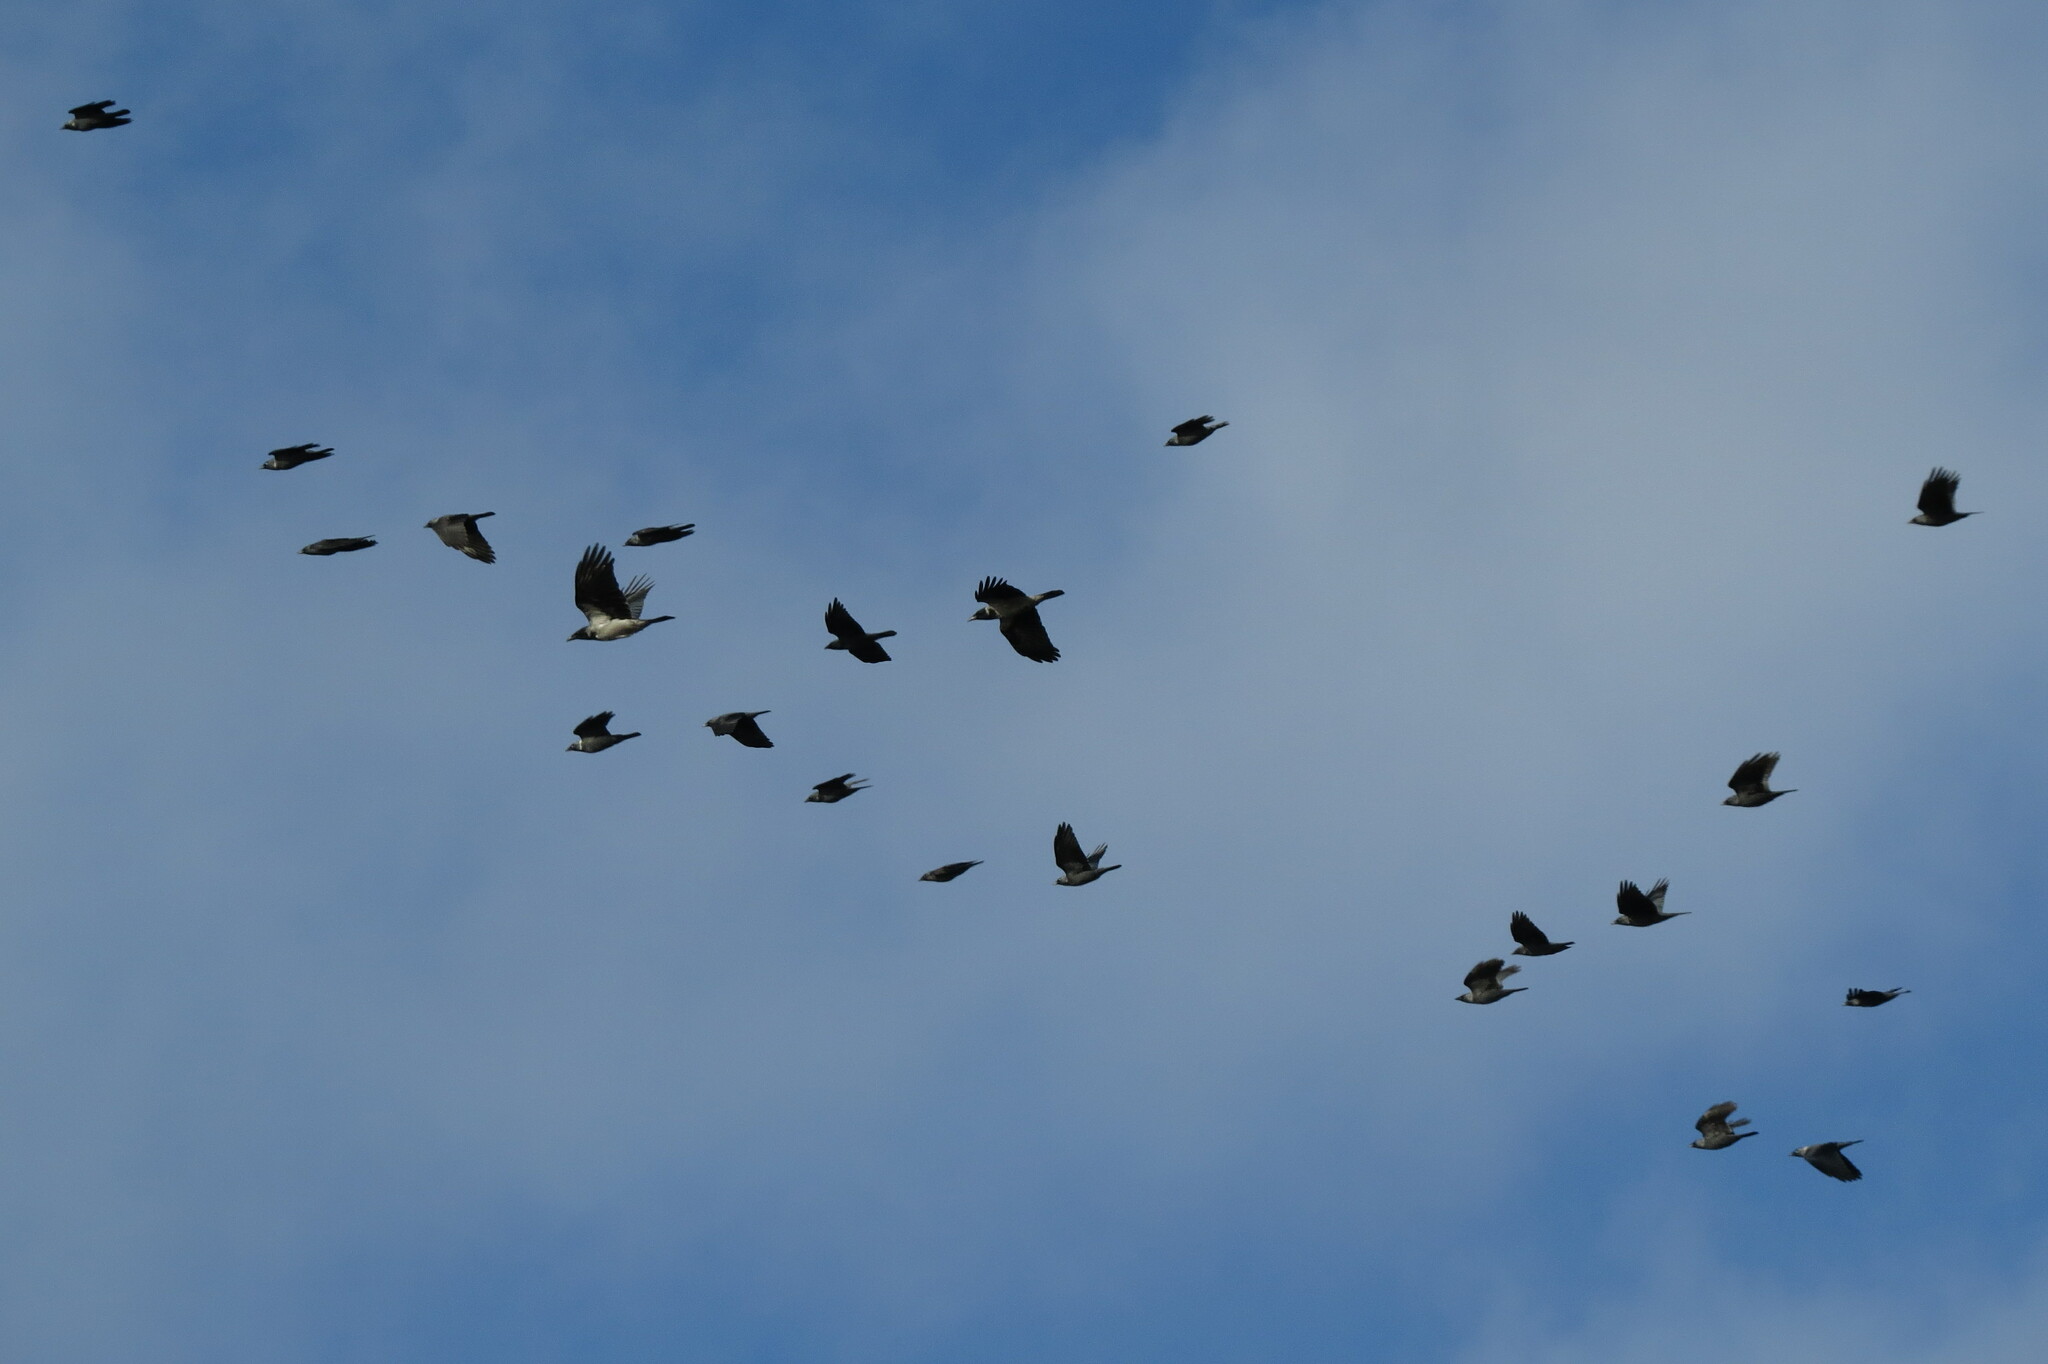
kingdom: Animalia
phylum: Chordata
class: Aves
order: Passeriformes
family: Corvidae
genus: Corvus
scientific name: Corvus cornix
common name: Hooded crow
